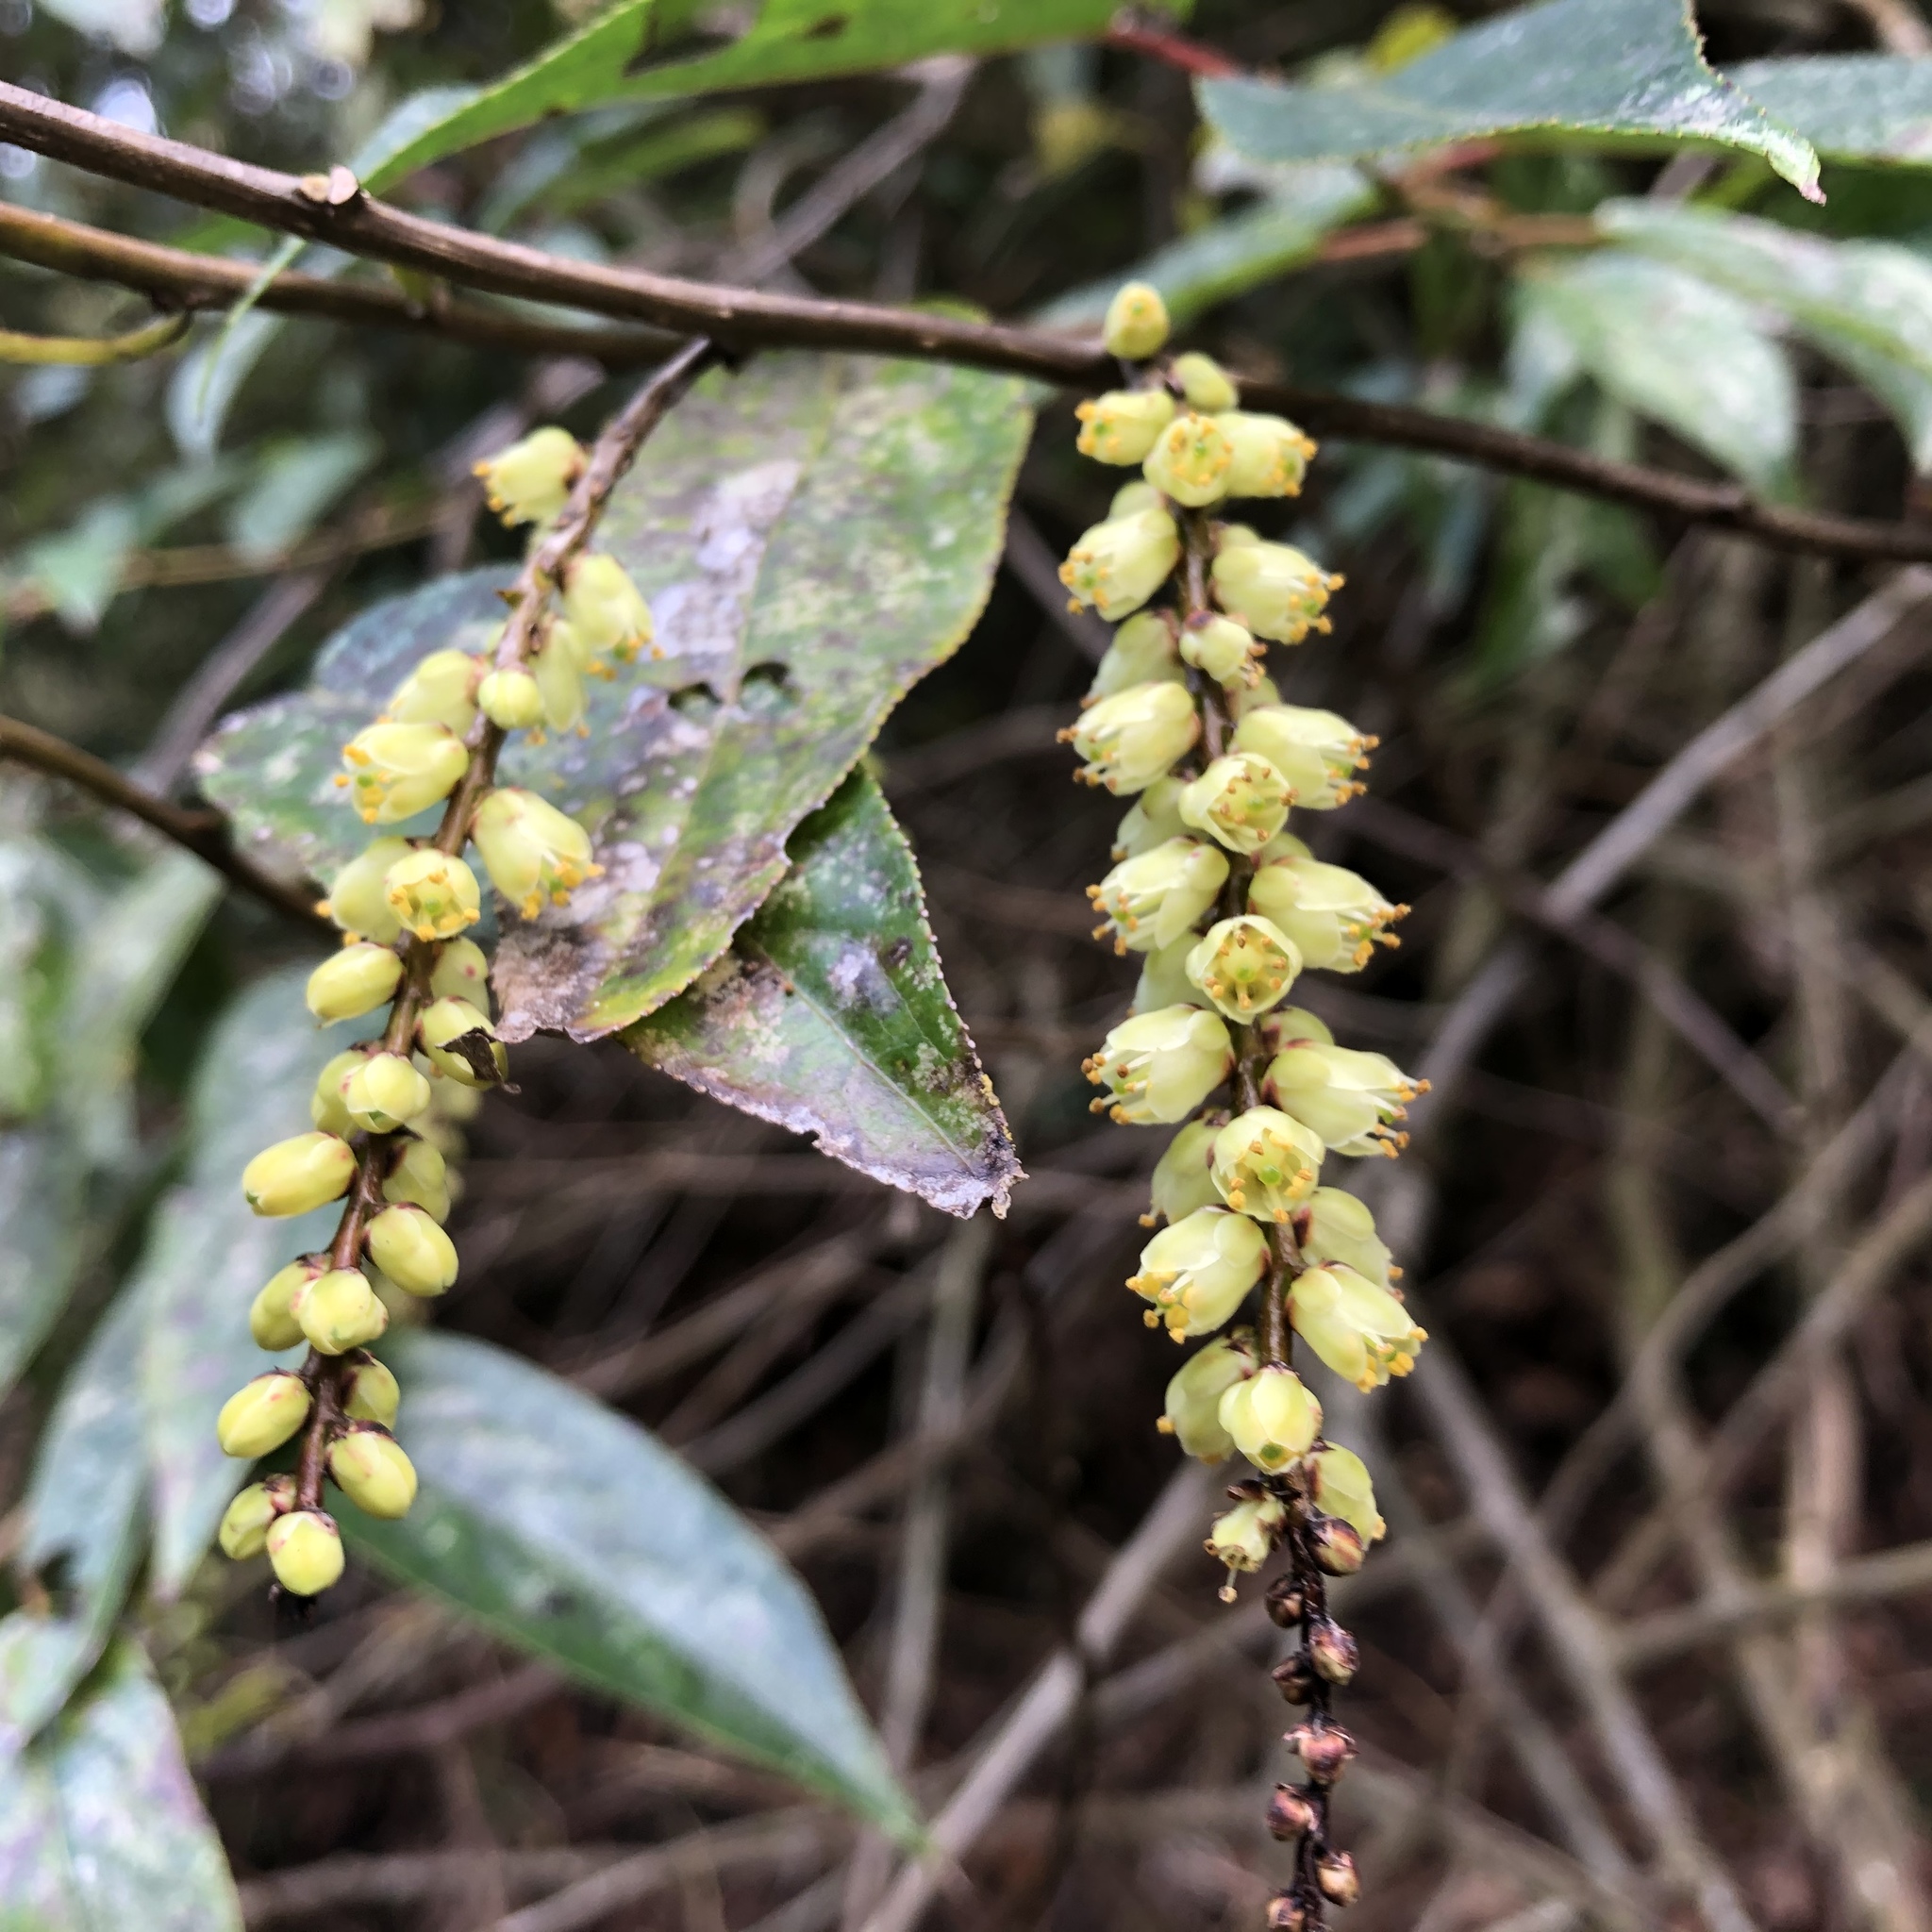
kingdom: Plantae
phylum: Tracheophyta
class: Magnoliopsida
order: Crossosomatales
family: Stachyuraceae
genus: Stachyurus
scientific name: Stachyurus himalaicus
